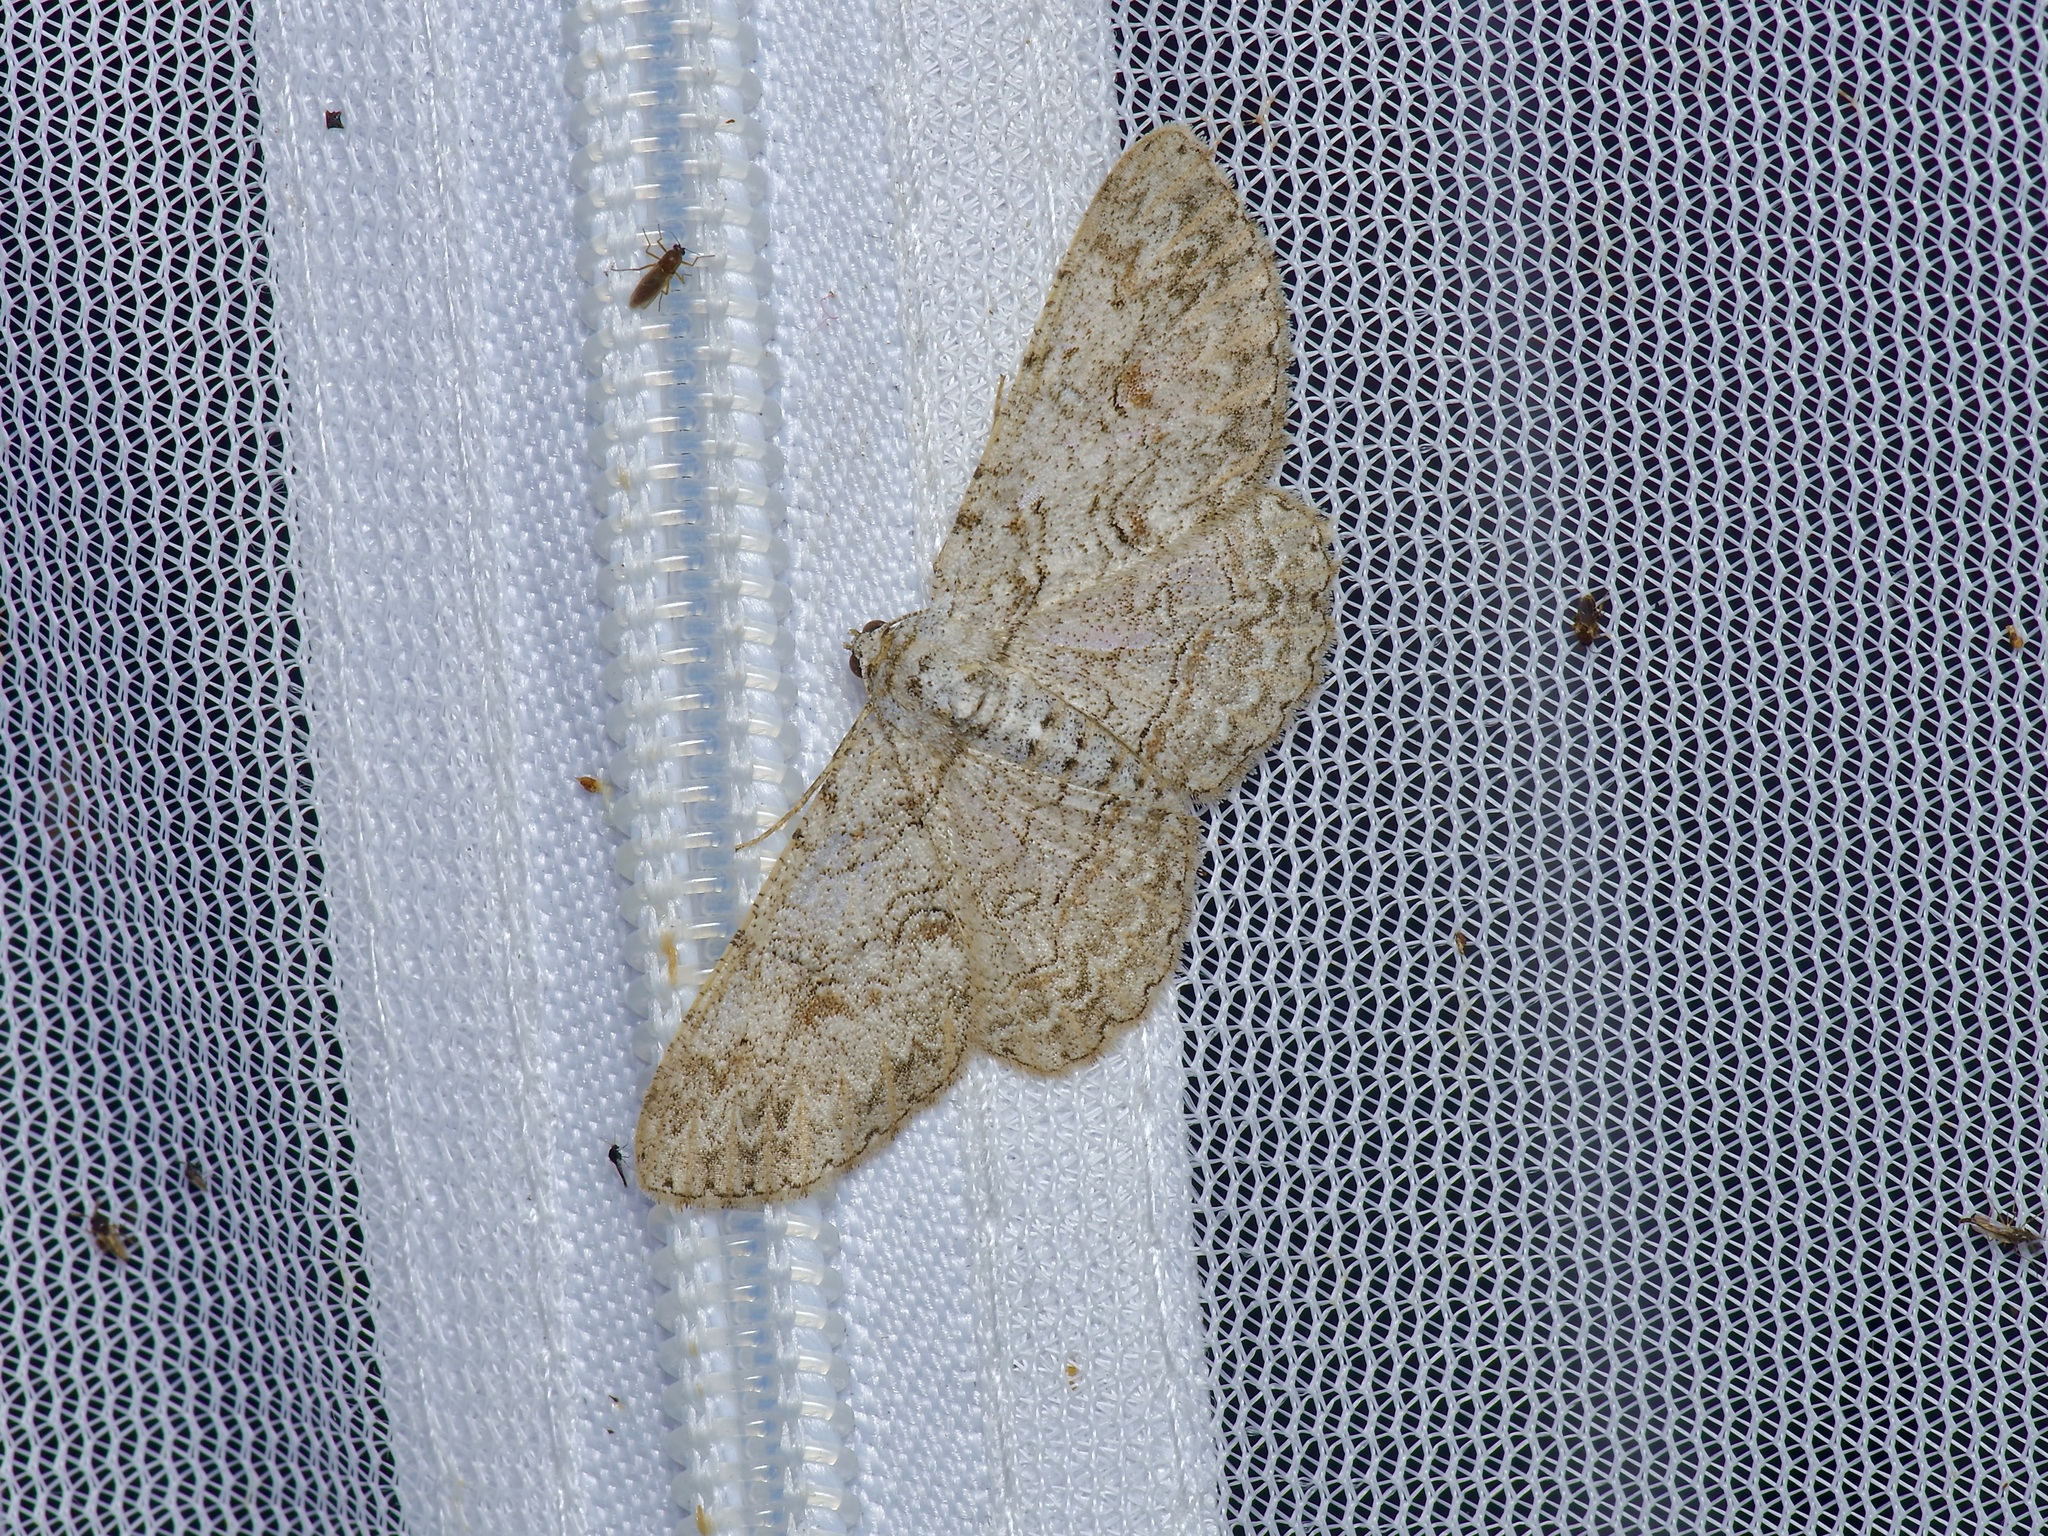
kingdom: Animalia
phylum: Arthropoda
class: Insecta
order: Lepidoptera
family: Geometridae
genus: Iridopsis
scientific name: Iridopsis defectaria
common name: Brown-shaded gray
